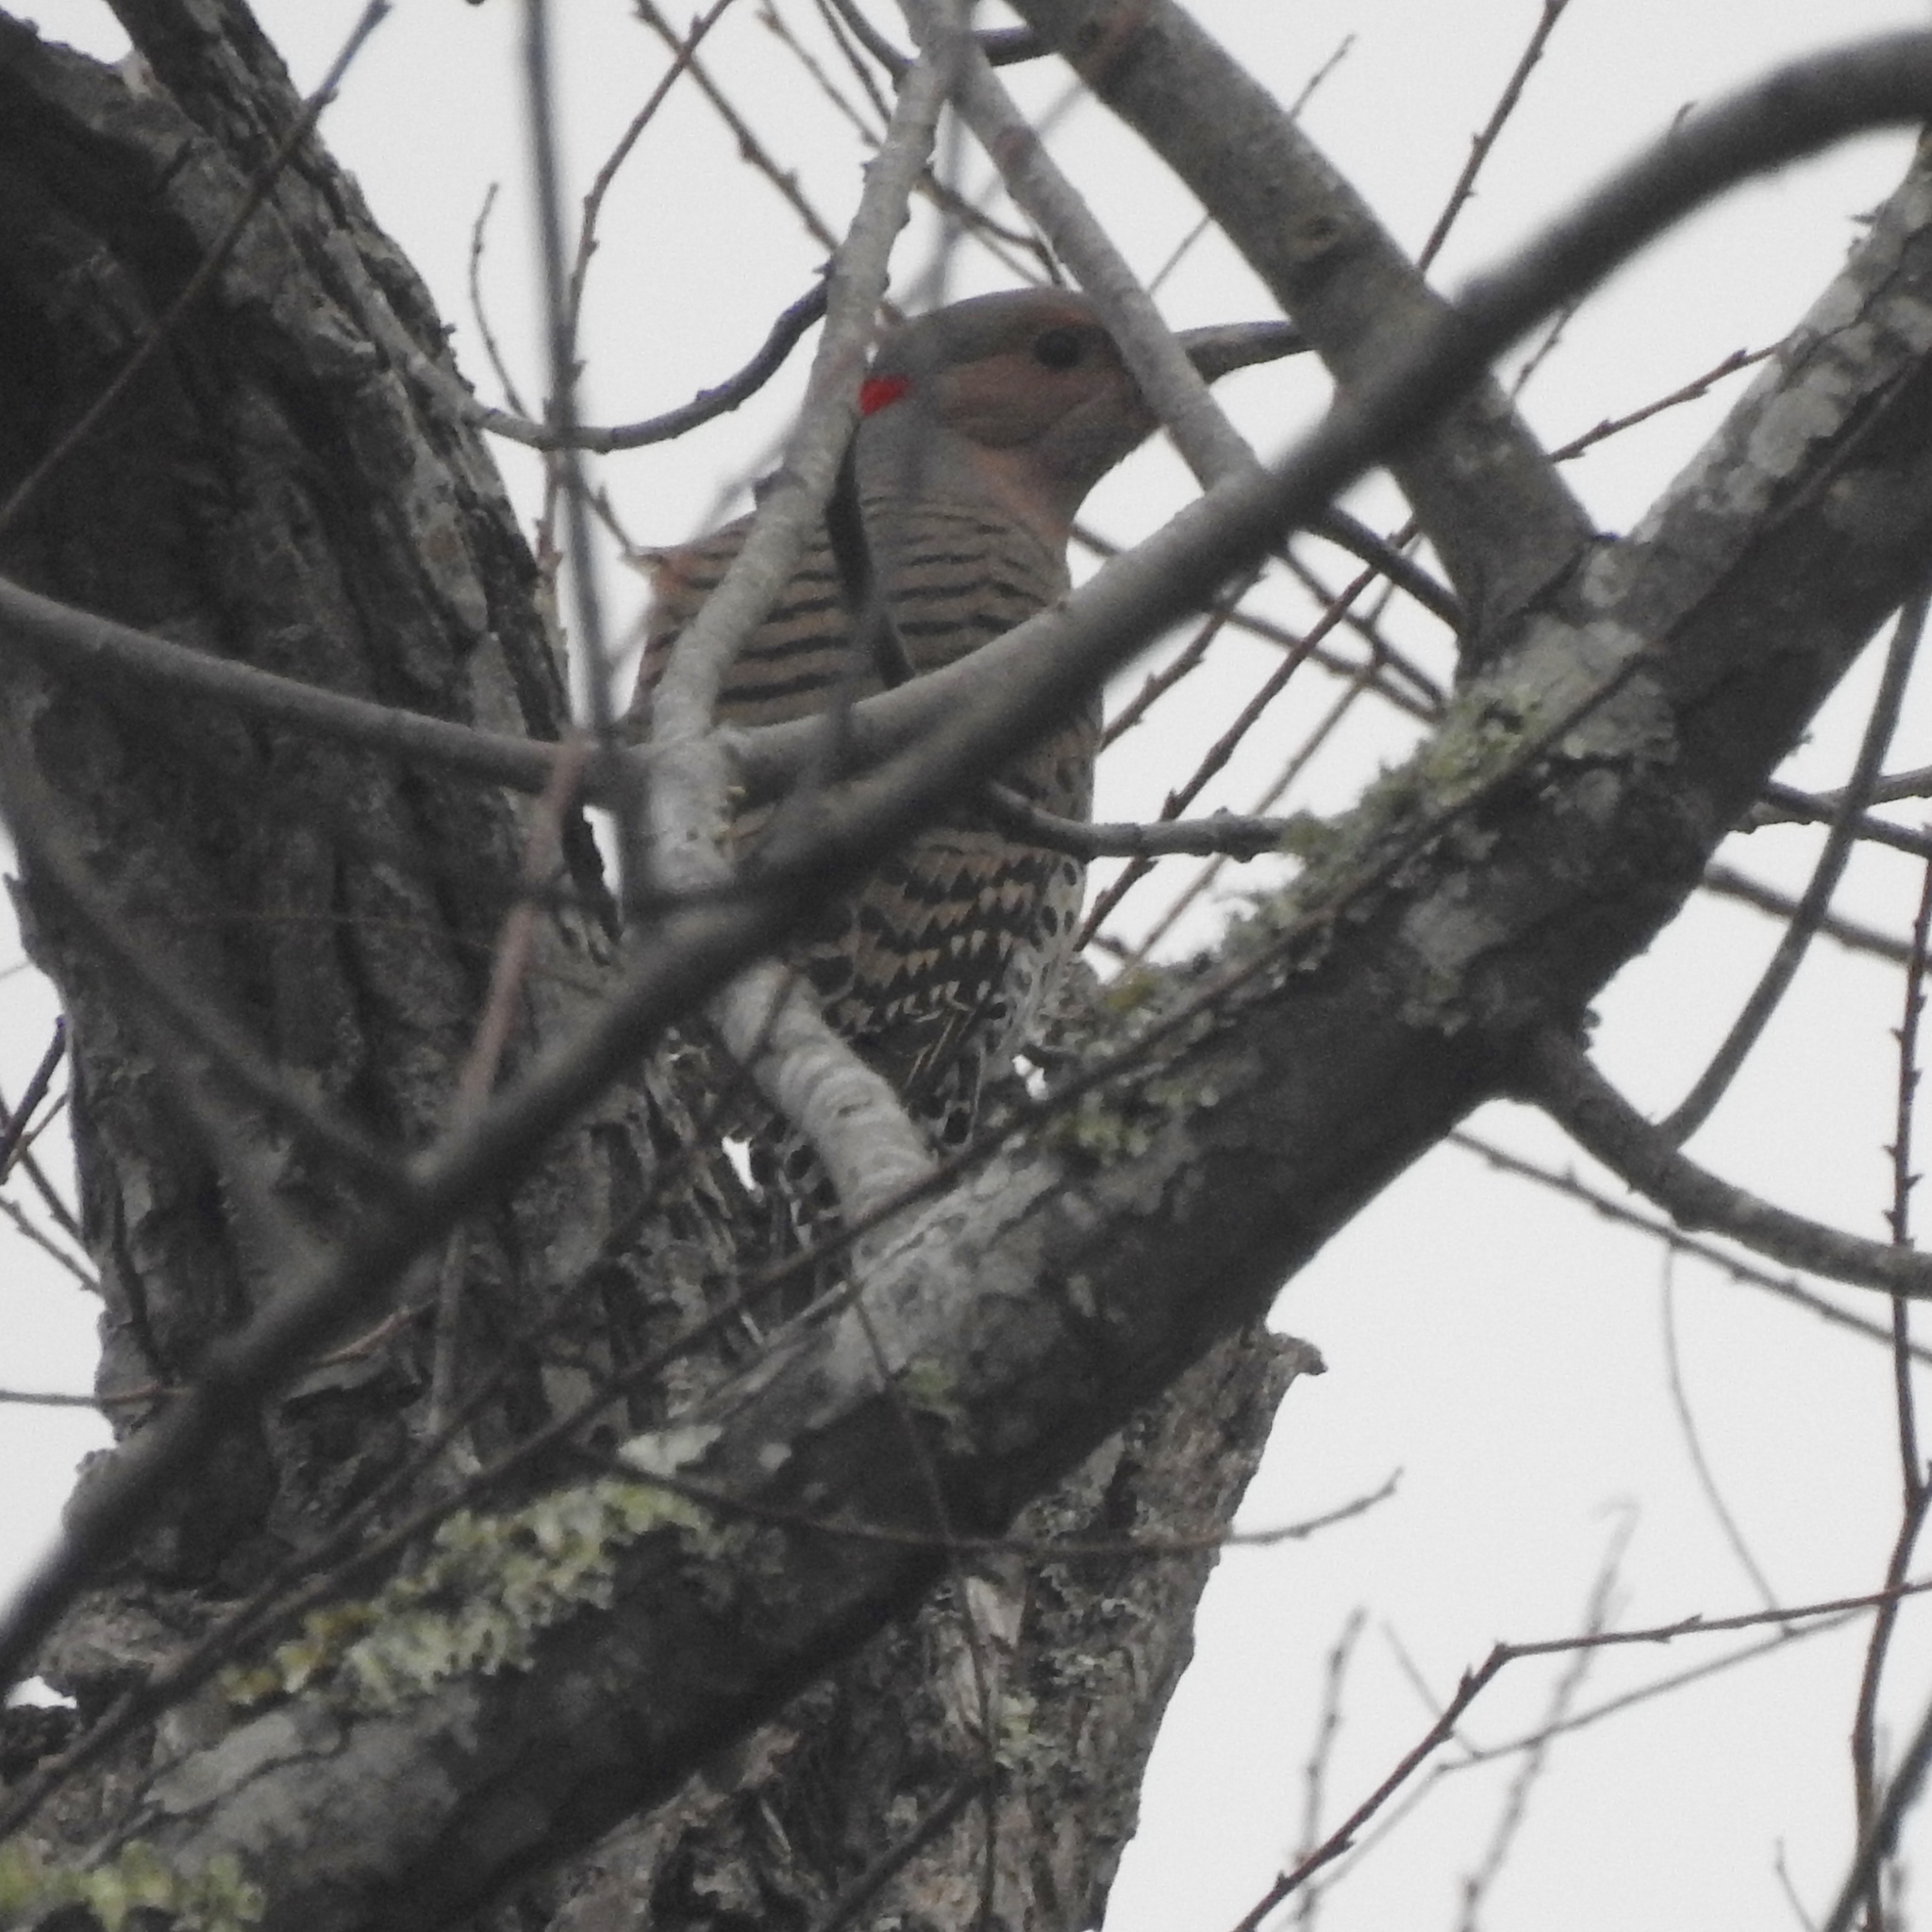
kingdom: Animalia
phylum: Chordata
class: Aves
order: Piciformes
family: Picidae
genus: Colaptes
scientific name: Colaptes auratus
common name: Northern flicker
